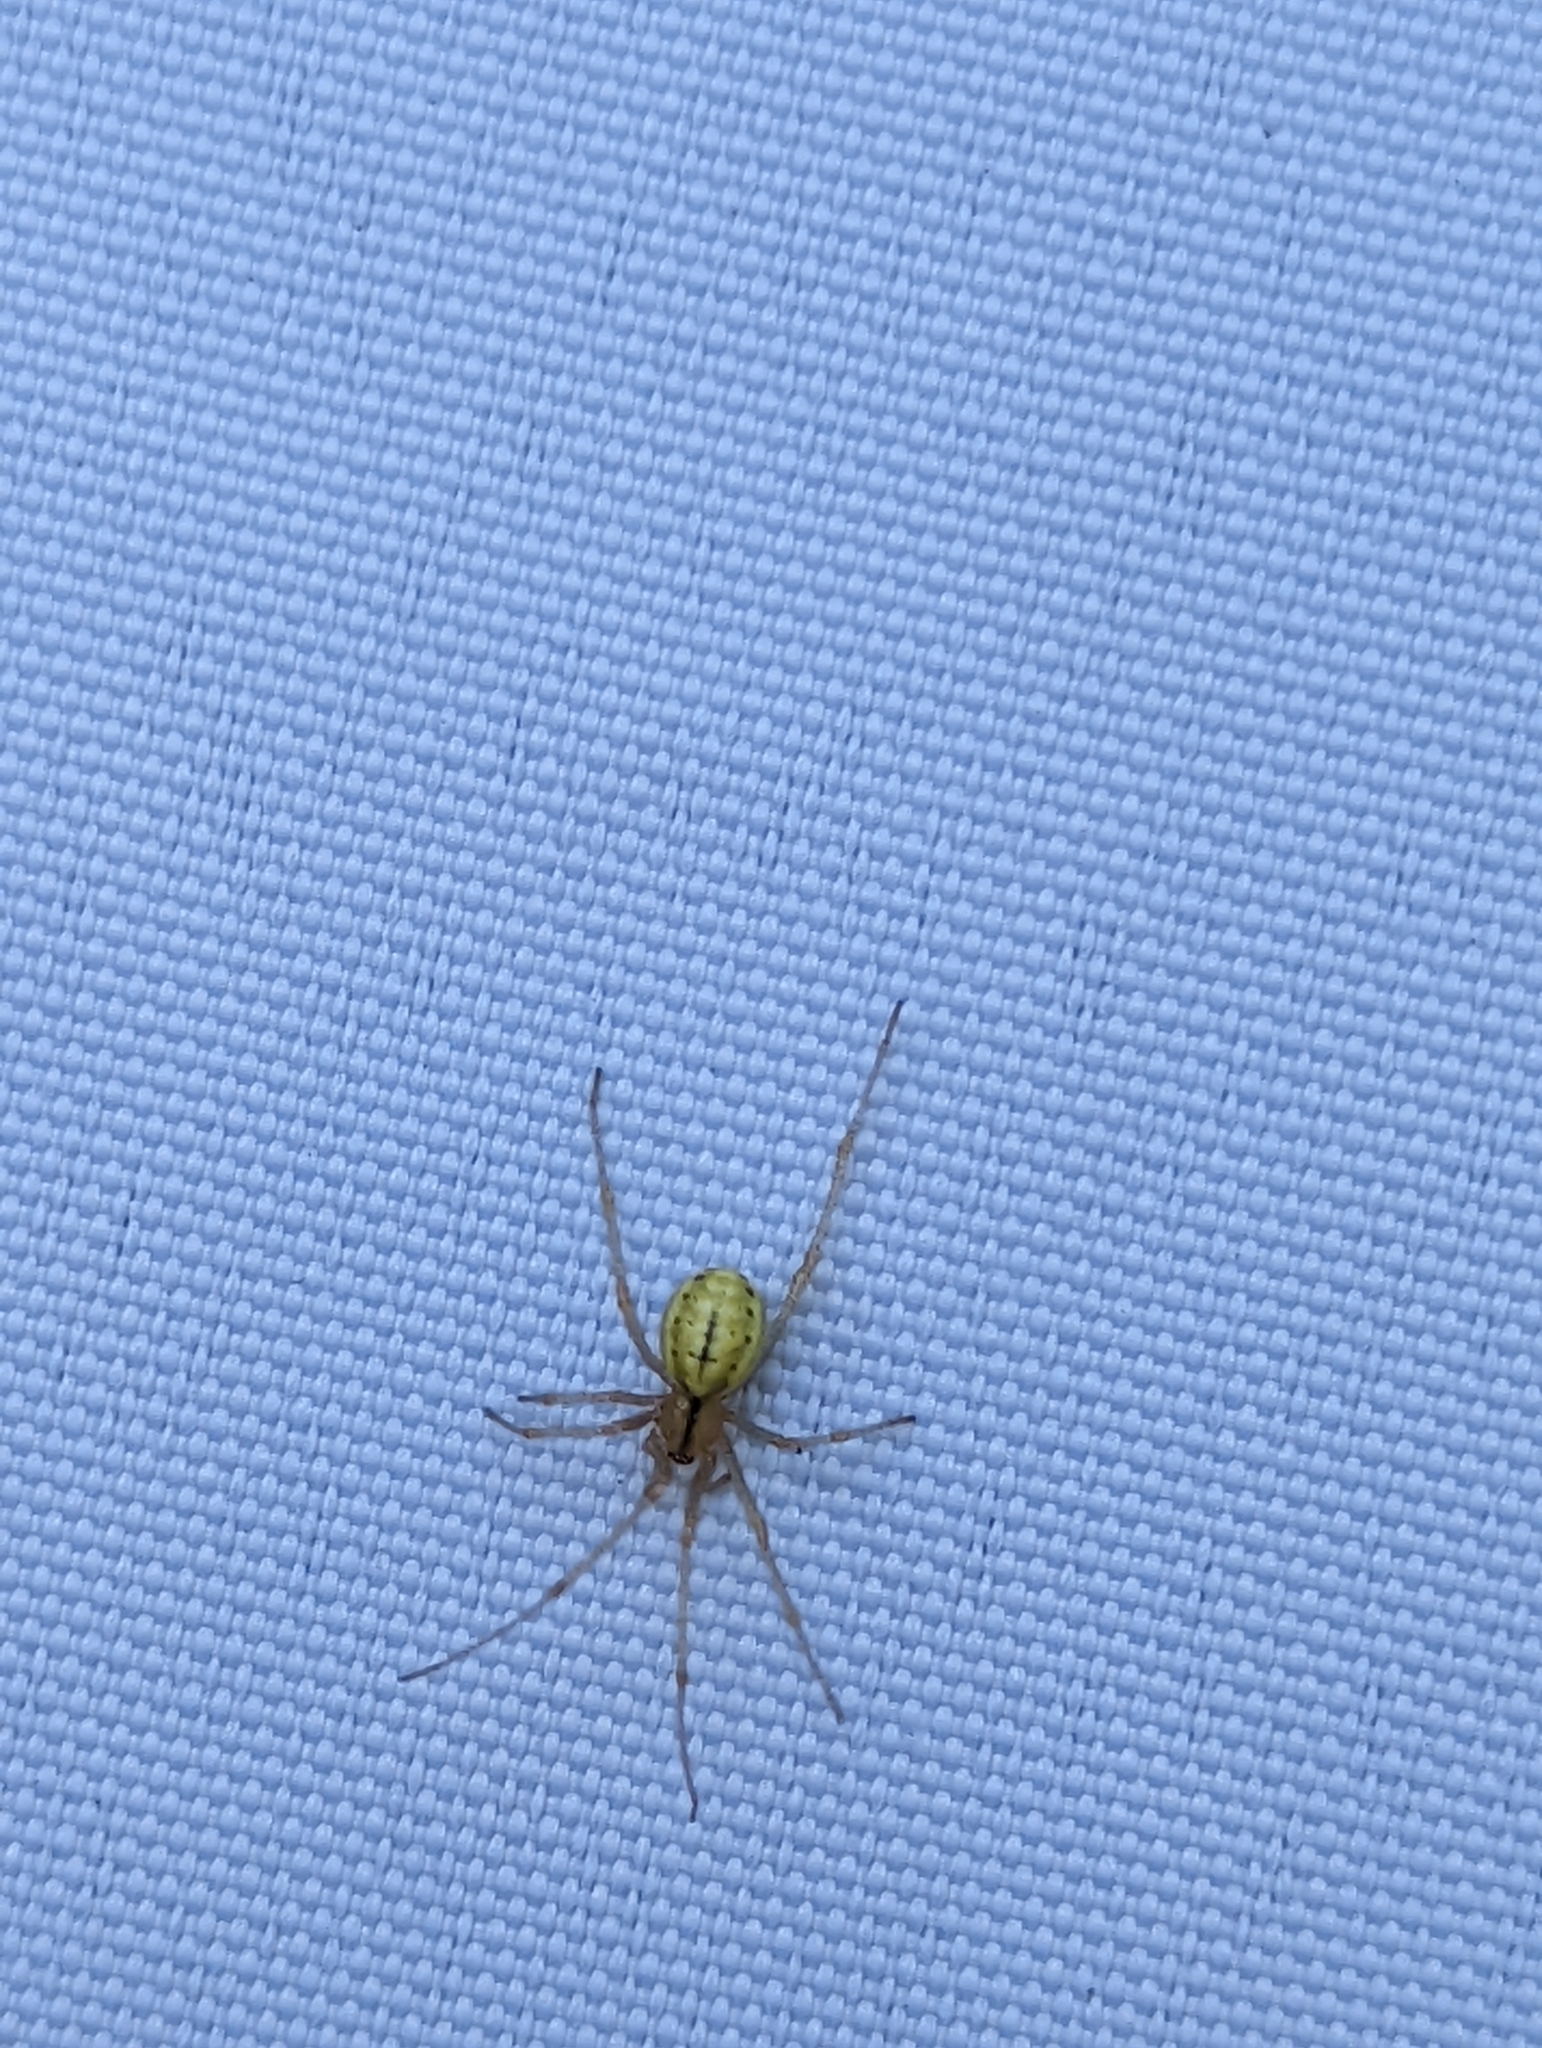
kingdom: Animalia
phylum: Arthropoda
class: Arachnida
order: Araneae
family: Theridiidae
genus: Enoplognatha
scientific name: Enoplognatha ovata
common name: Common candy-striped spider
